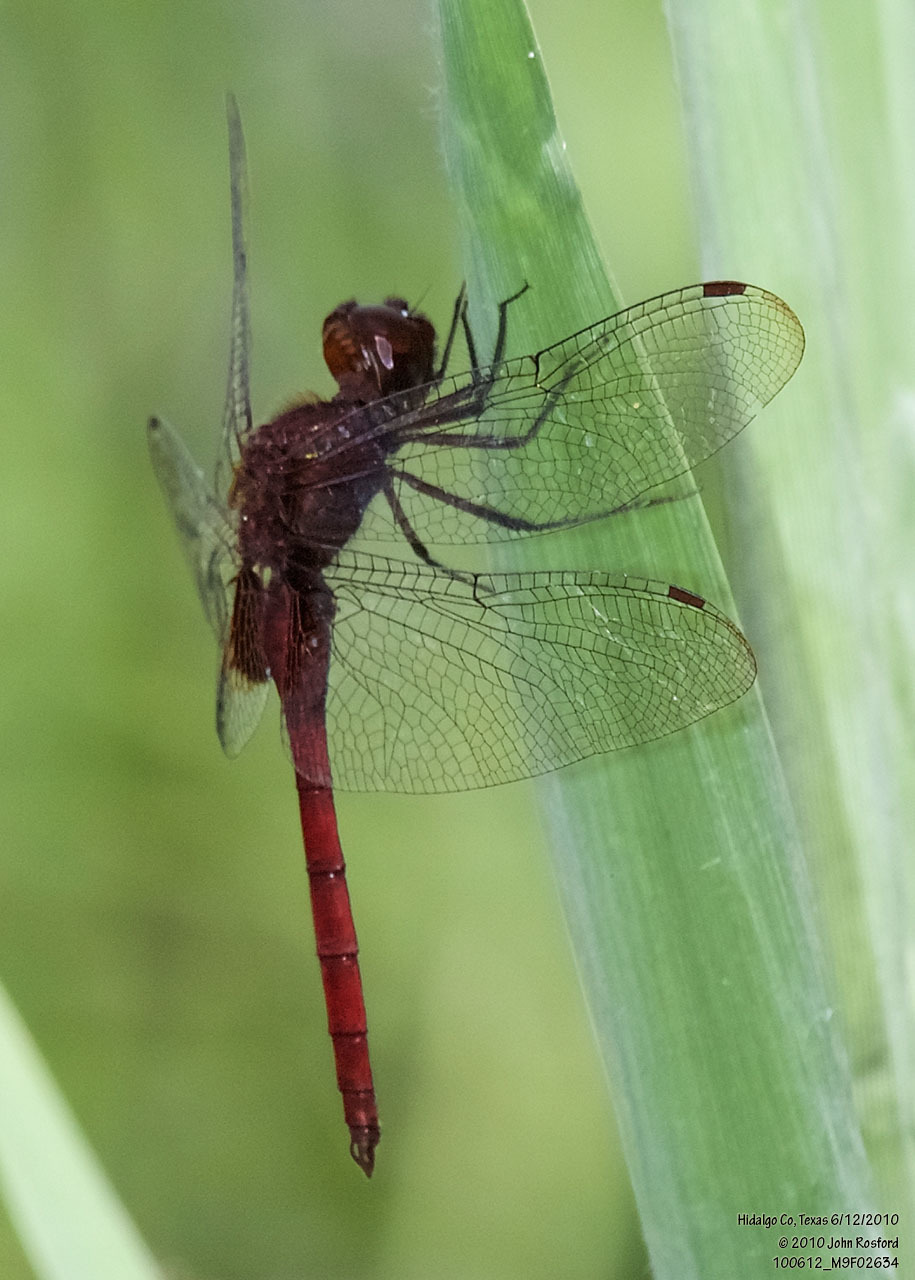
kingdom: Animalia
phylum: Arthropoda
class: Insecta
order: Odonata
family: Libellulidae
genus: Tauriphila
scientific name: Tauriphila argo
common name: Arch-tipped glider
